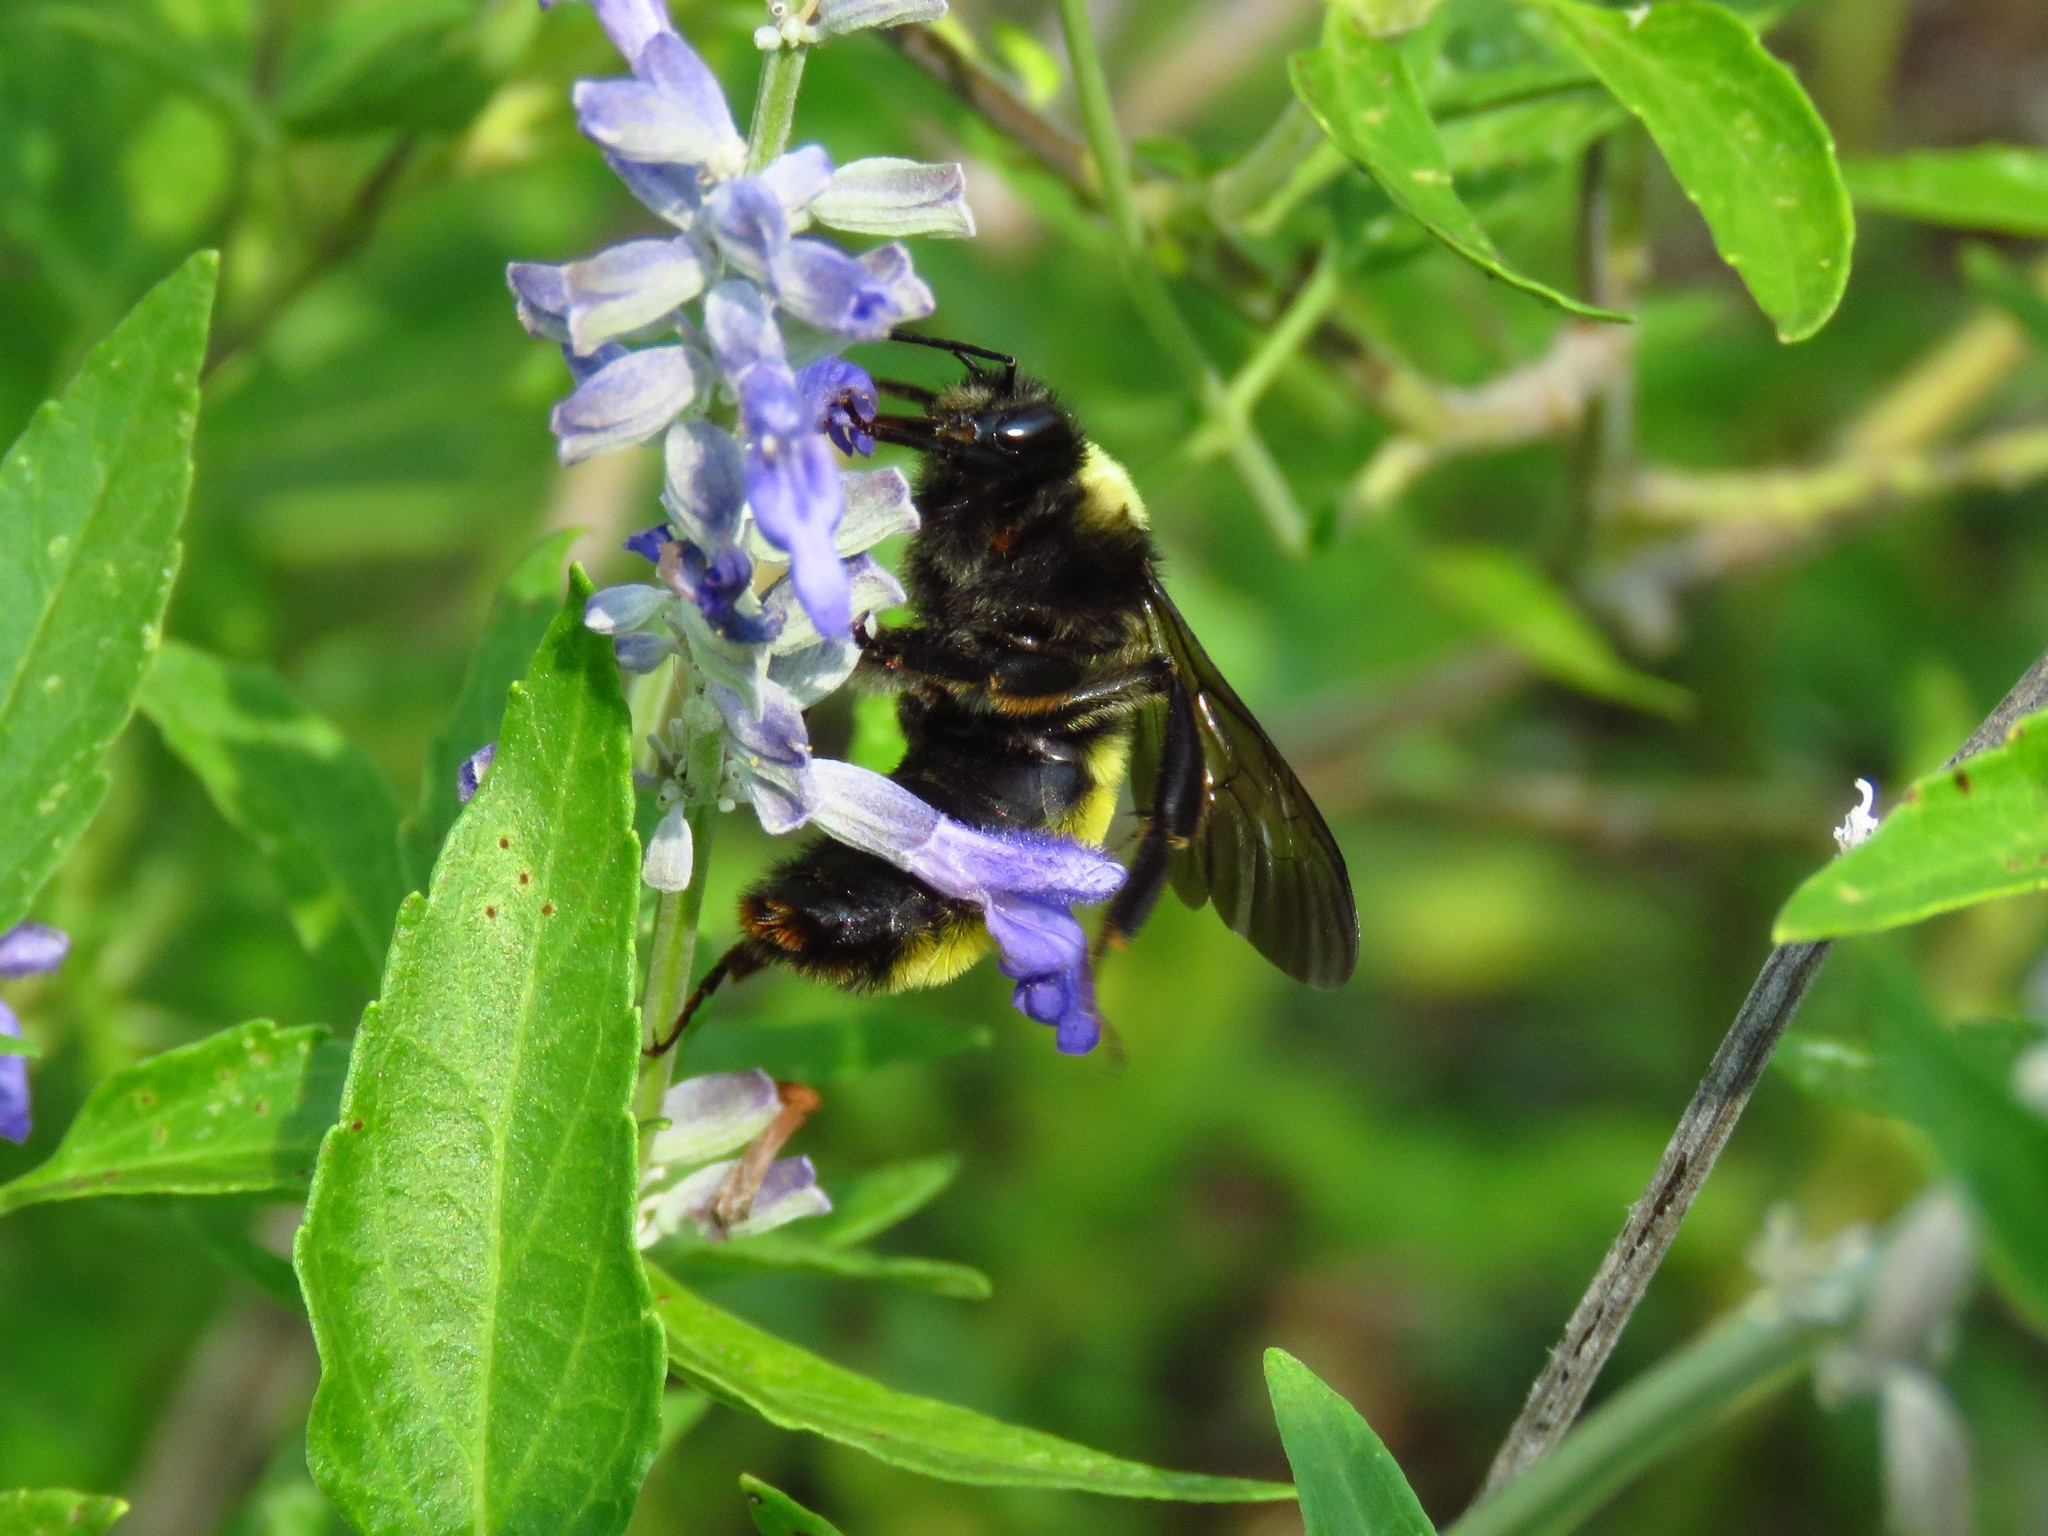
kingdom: Animalia
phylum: Arthropoda
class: Insecta
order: Hymenoptera
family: Apidae
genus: Bombus
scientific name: Bombus pensylvanicus
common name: Bumble bee
